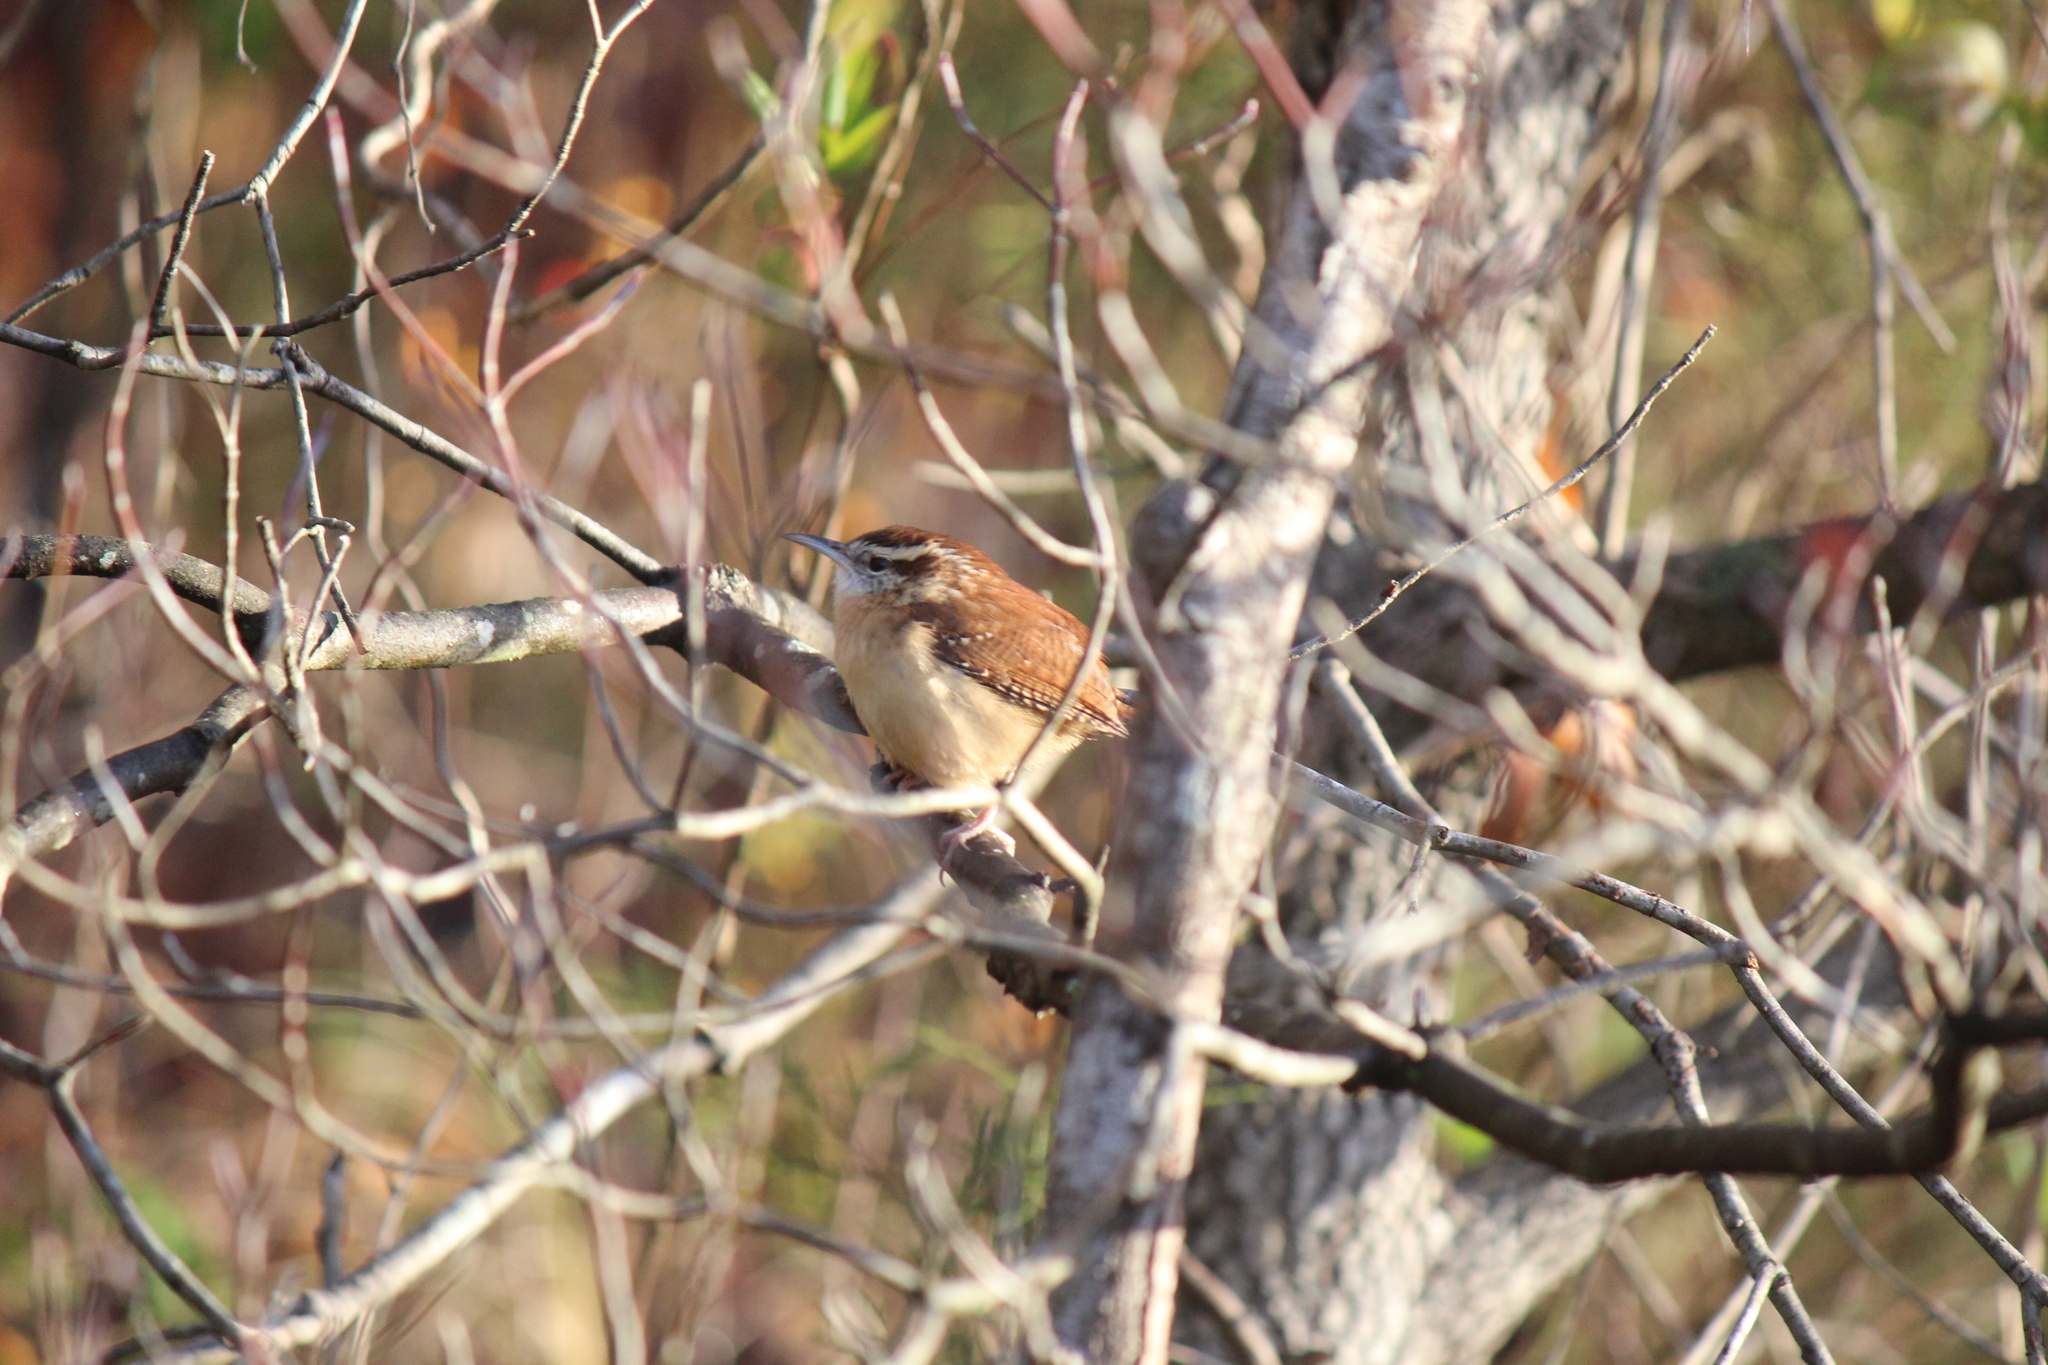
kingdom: Animalia
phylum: Chordata
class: Aves
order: Passeriformes
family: Troglodytidae
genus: Thryothorus
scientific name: Thryothorus ludovicianus
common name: Carolina wren
